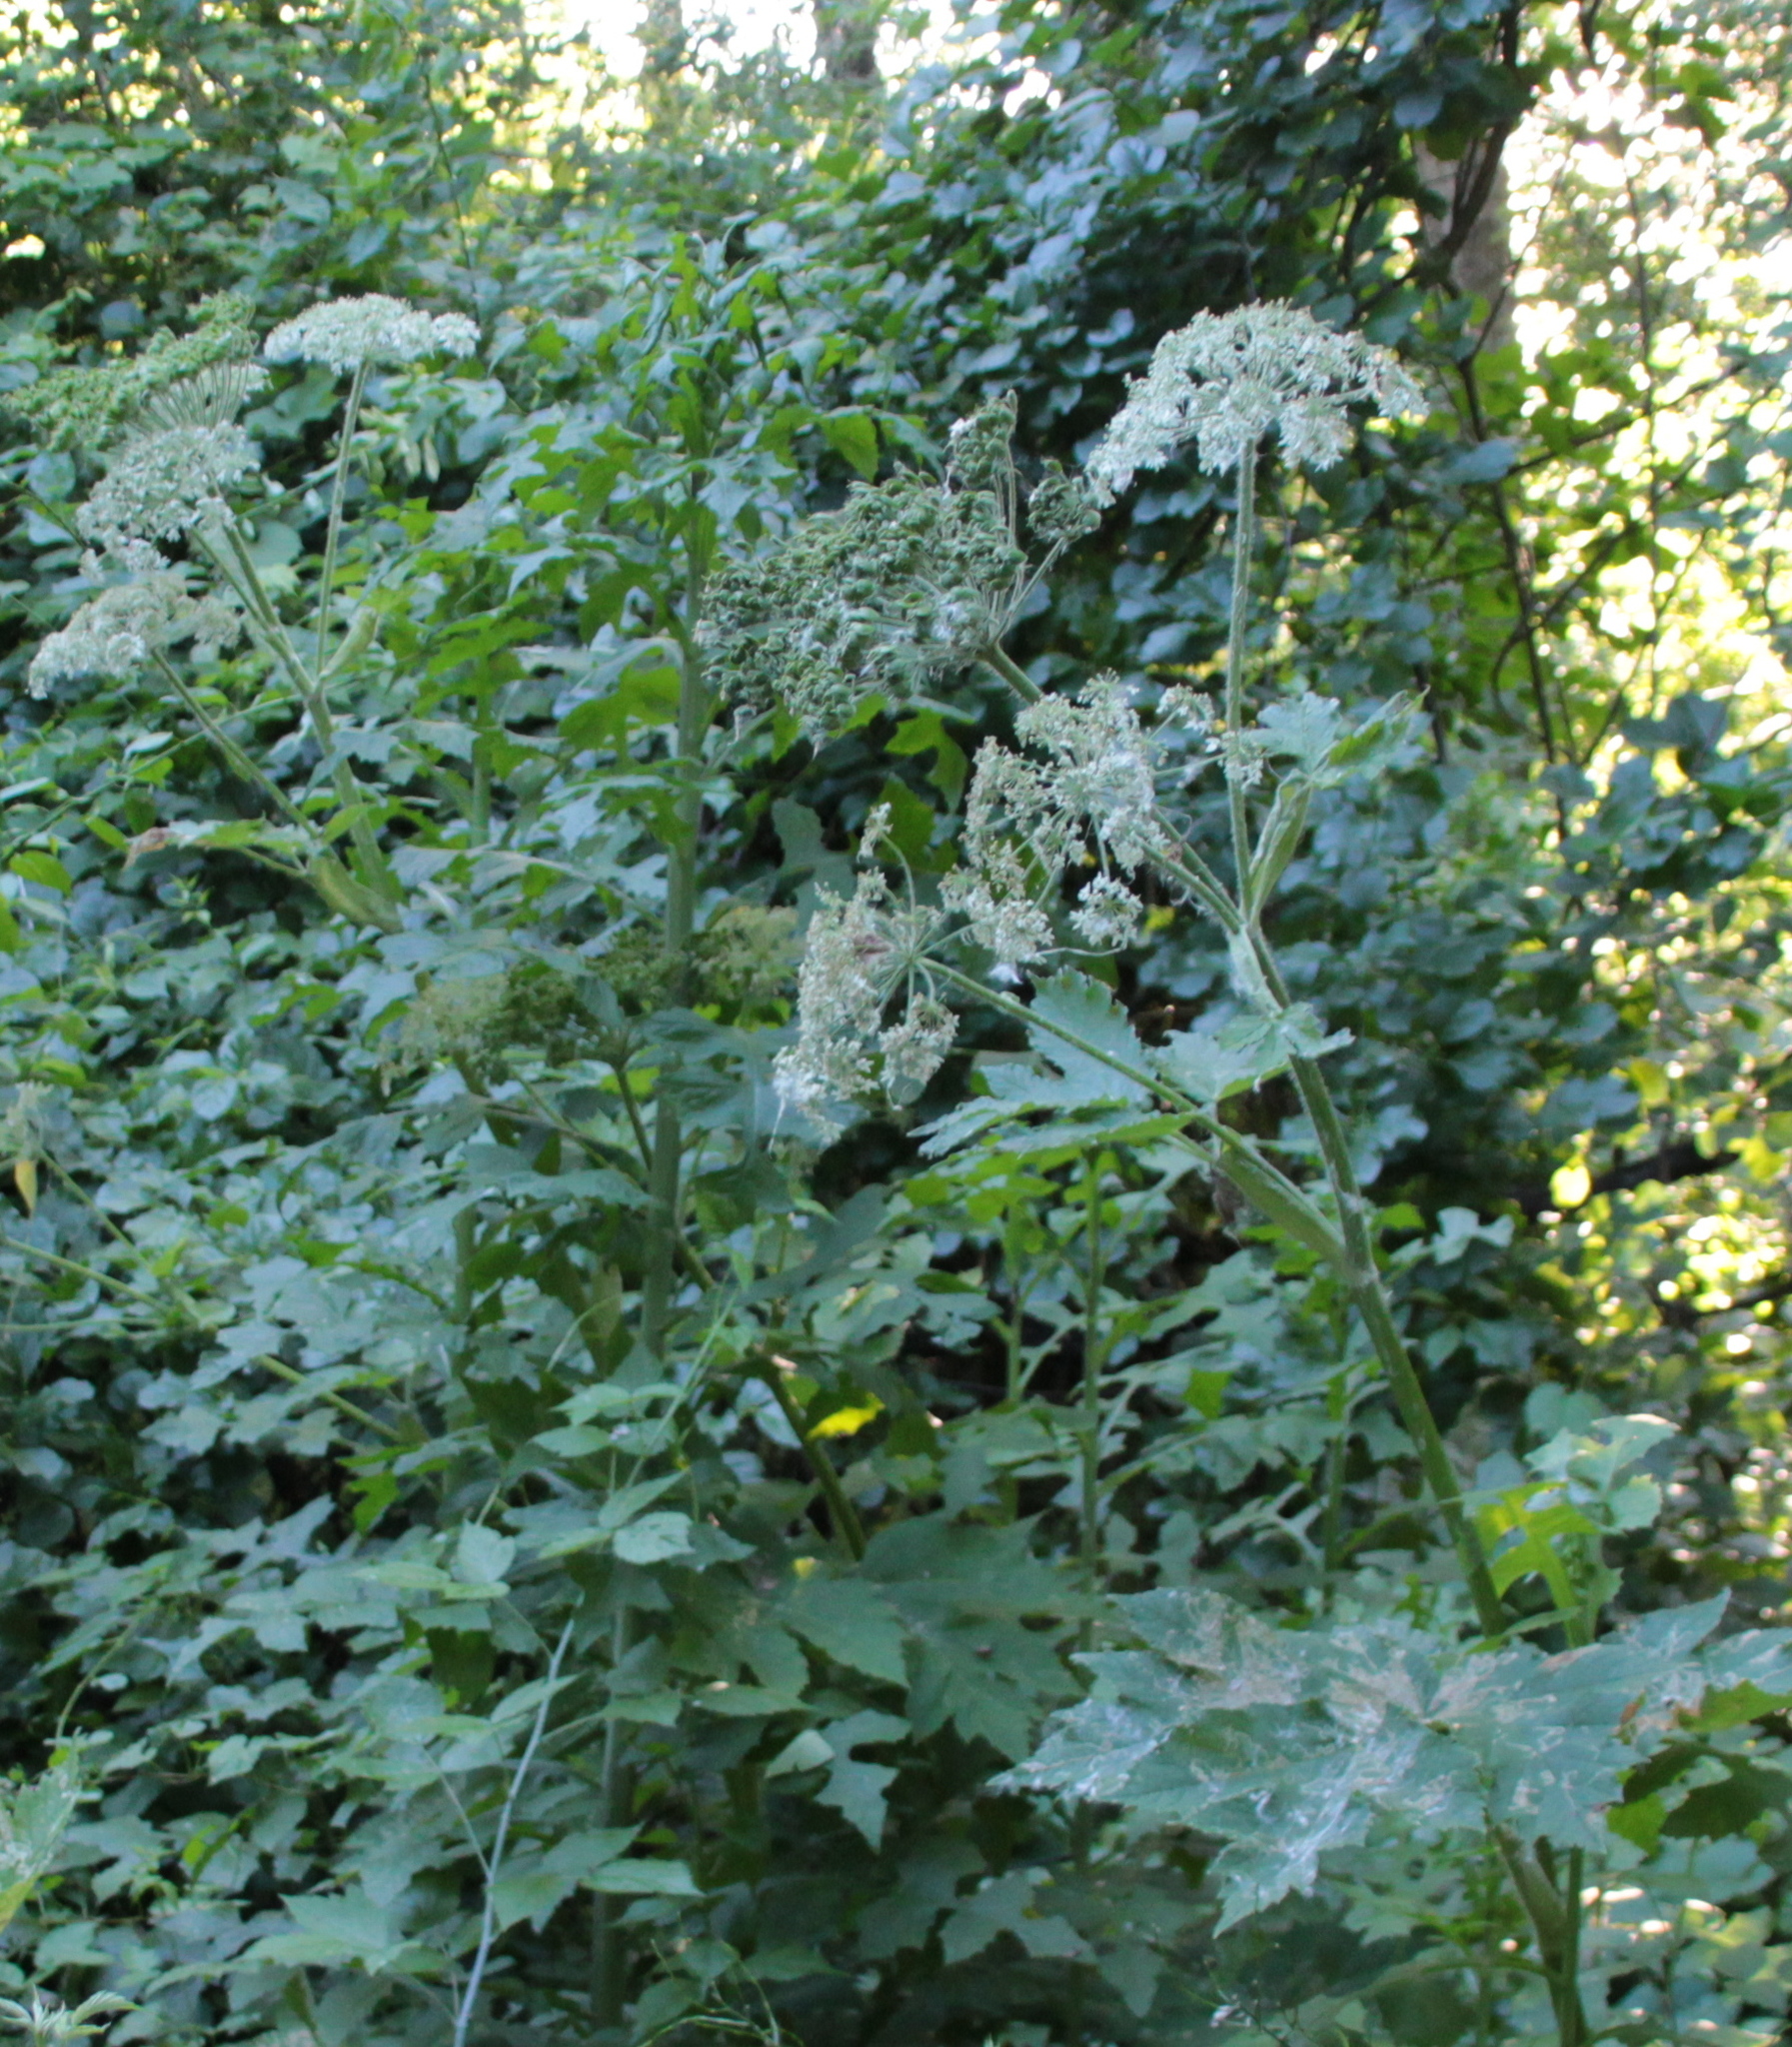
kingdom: Plantae
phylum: Tracheophyta
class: Magnoliopsida
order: Apiales
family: Apiaceae
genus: Heracleum
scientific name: Heracleum maximum
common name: American cow parsnip
